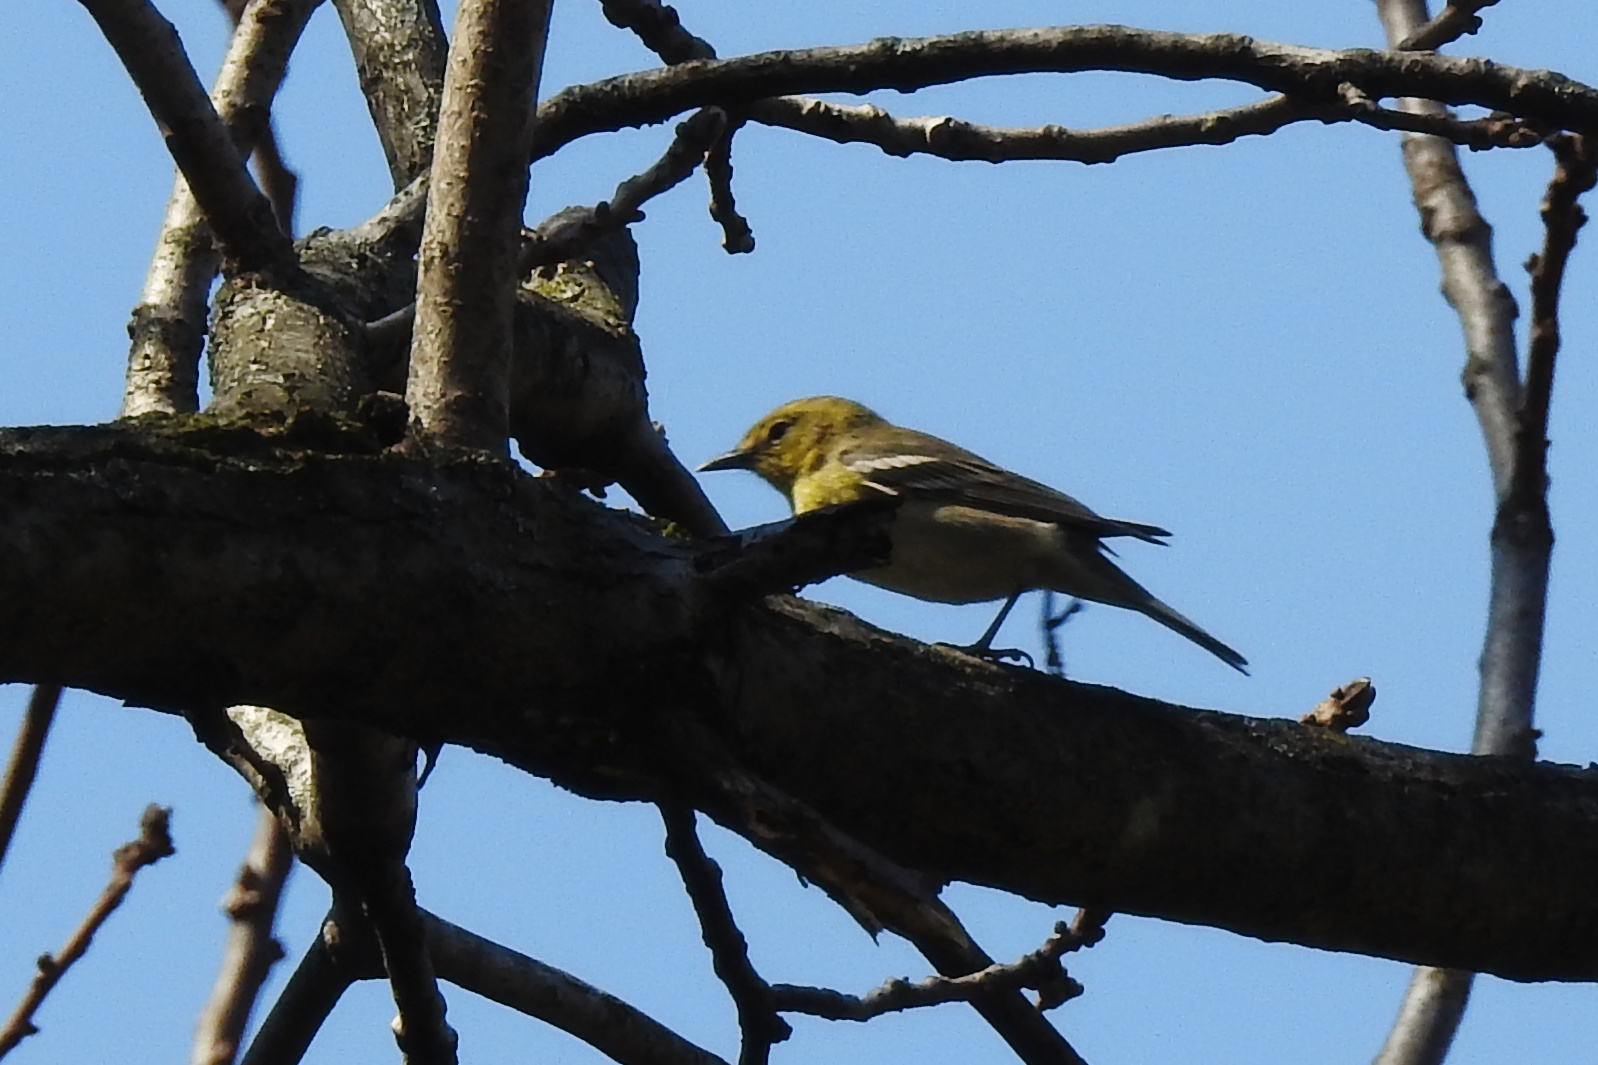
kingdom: Animalia
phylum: Chordata
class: Aves
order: Passeriformes
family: Parulidae
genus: Setophaga
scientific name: Setophaga pinus
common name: Pine warbler
